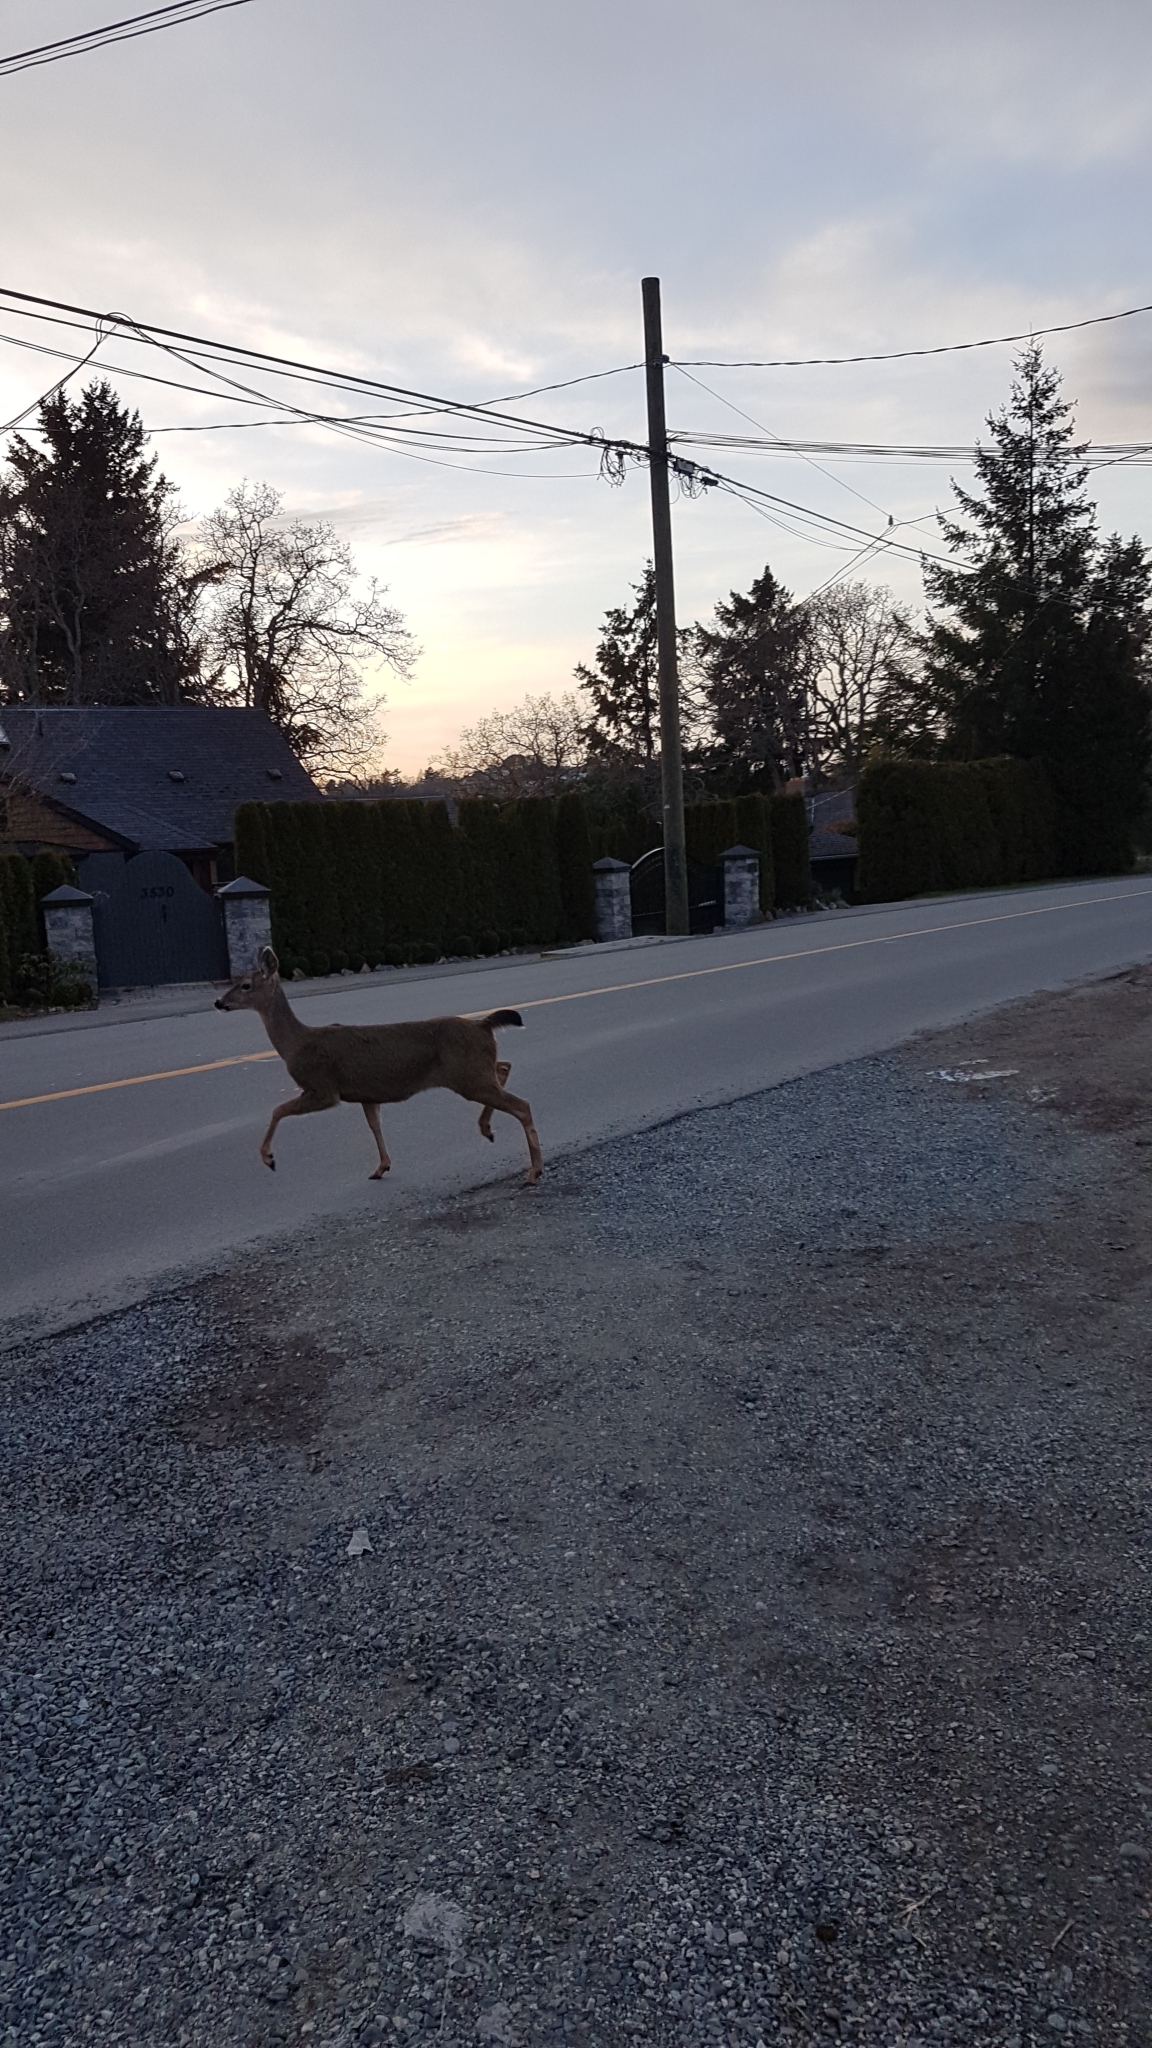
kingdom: Animalia
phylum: Chordata
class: Mammalia
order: Artiodactyla
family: Cervidae
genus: Odocoileus
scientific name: Odocoileus hemionus
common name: Mule deer
